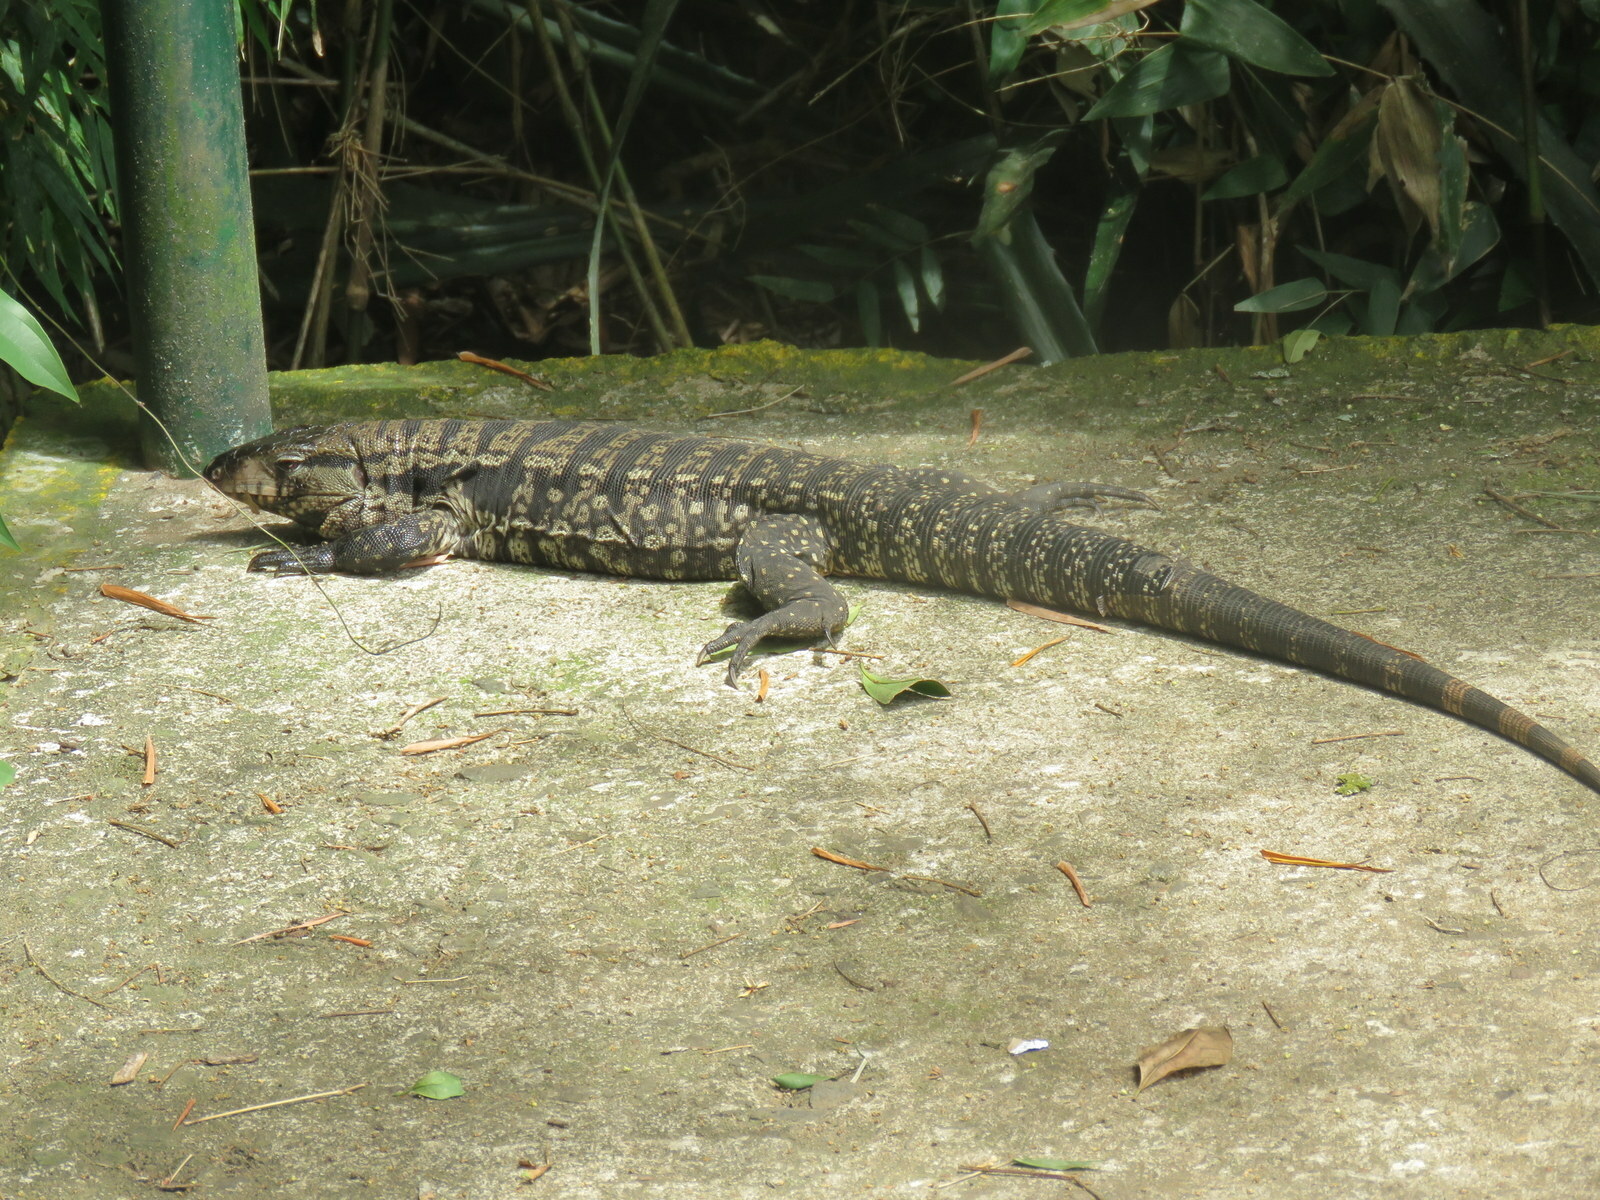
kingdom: Animalia
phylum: Chordata
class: Squamata
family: Teiidae
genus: Salvator
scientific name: Salvator merianae
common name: Argentine black and white tegu
